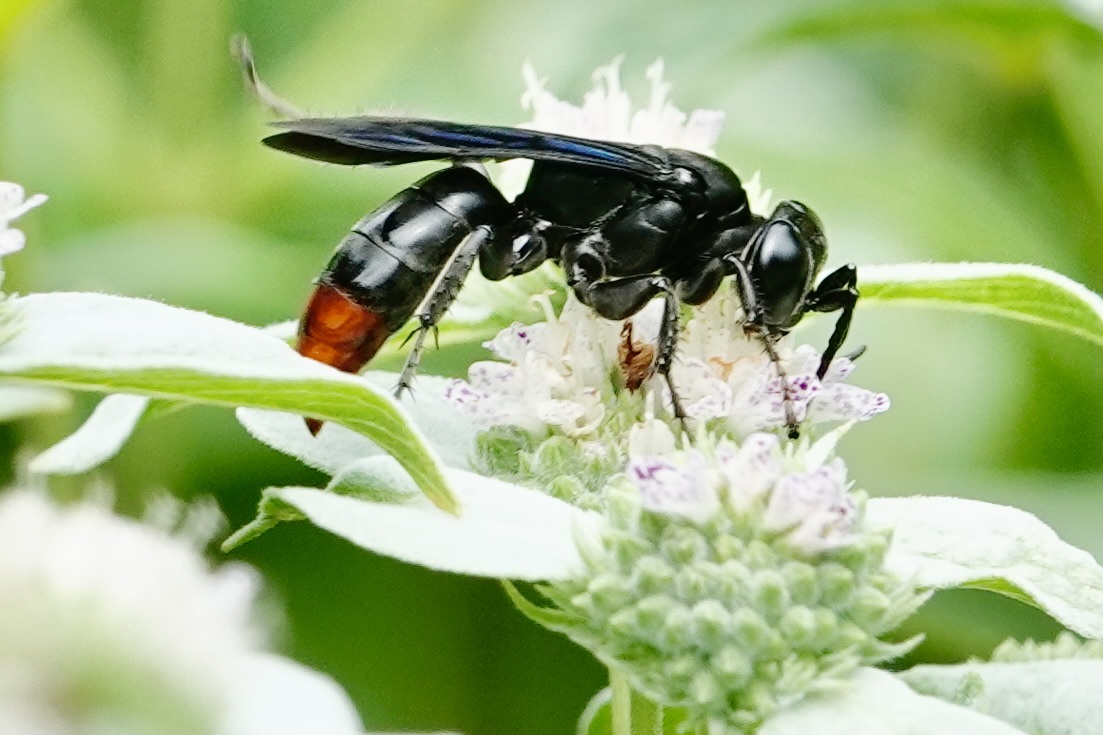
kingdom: Animalia
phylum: Arthropoda
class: Insecta
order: Hymenoptera
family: Crabronidae
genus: Larra
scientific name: Larra analis
